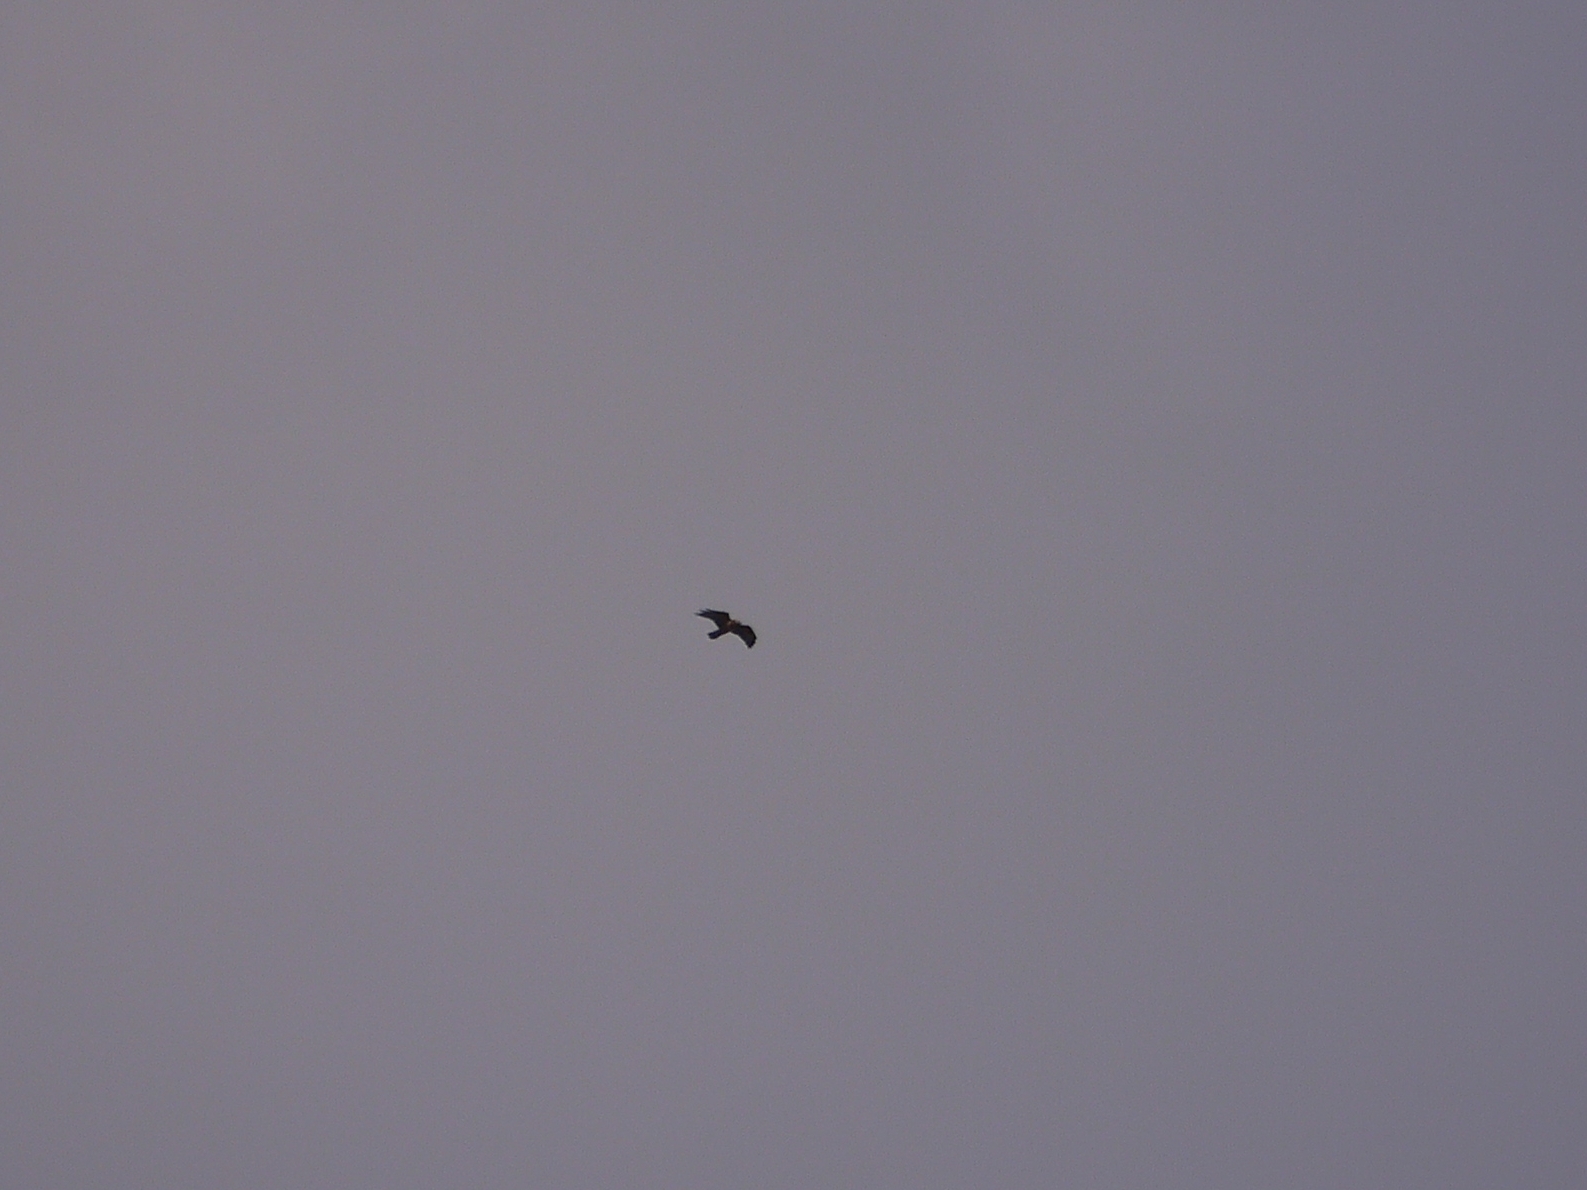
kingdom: Animalia
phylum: Chordata
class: Aves
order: Accipitriformes
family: Accipitridae
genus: Buteo
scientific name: Buteo buteo
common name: Common buzzard
